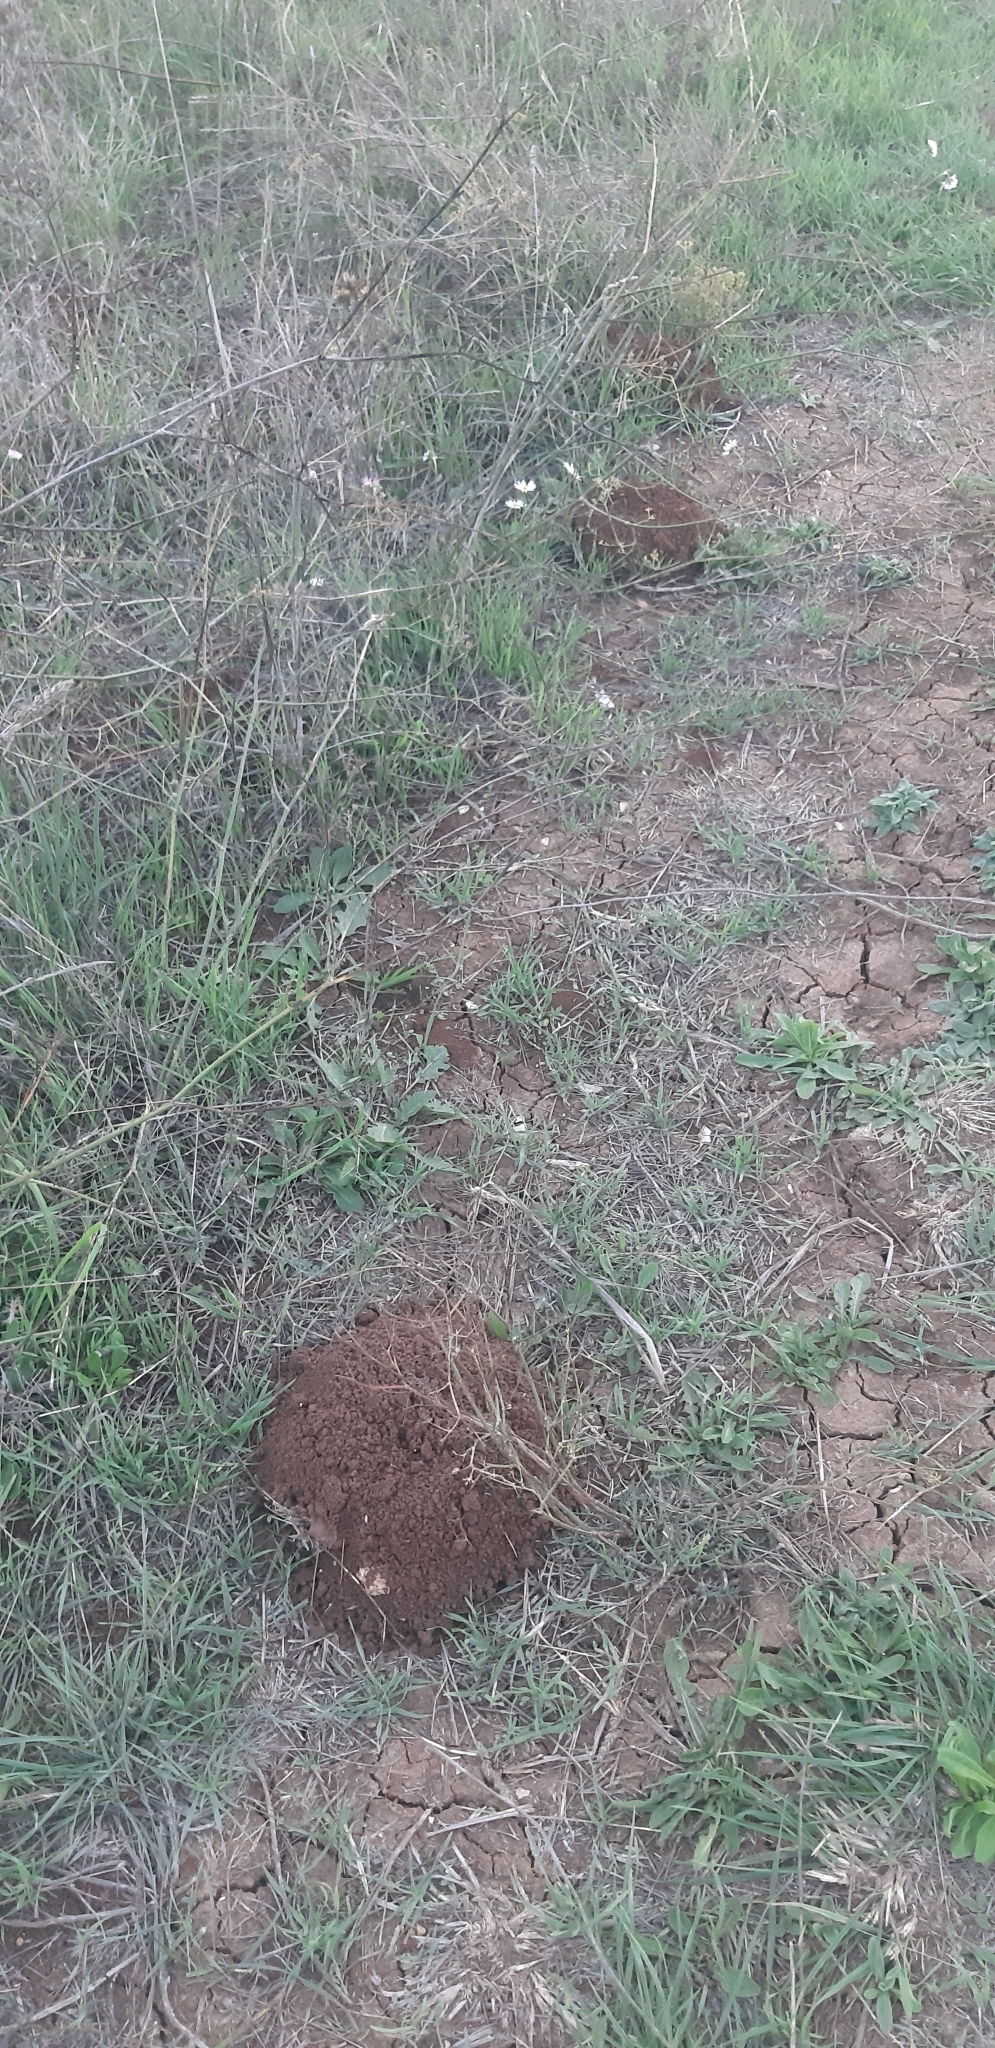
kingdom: Animalia
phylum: Chordata
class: Mammalia
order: Soricomorpha
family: Talpidae
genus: Talpa
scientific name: Talpa
